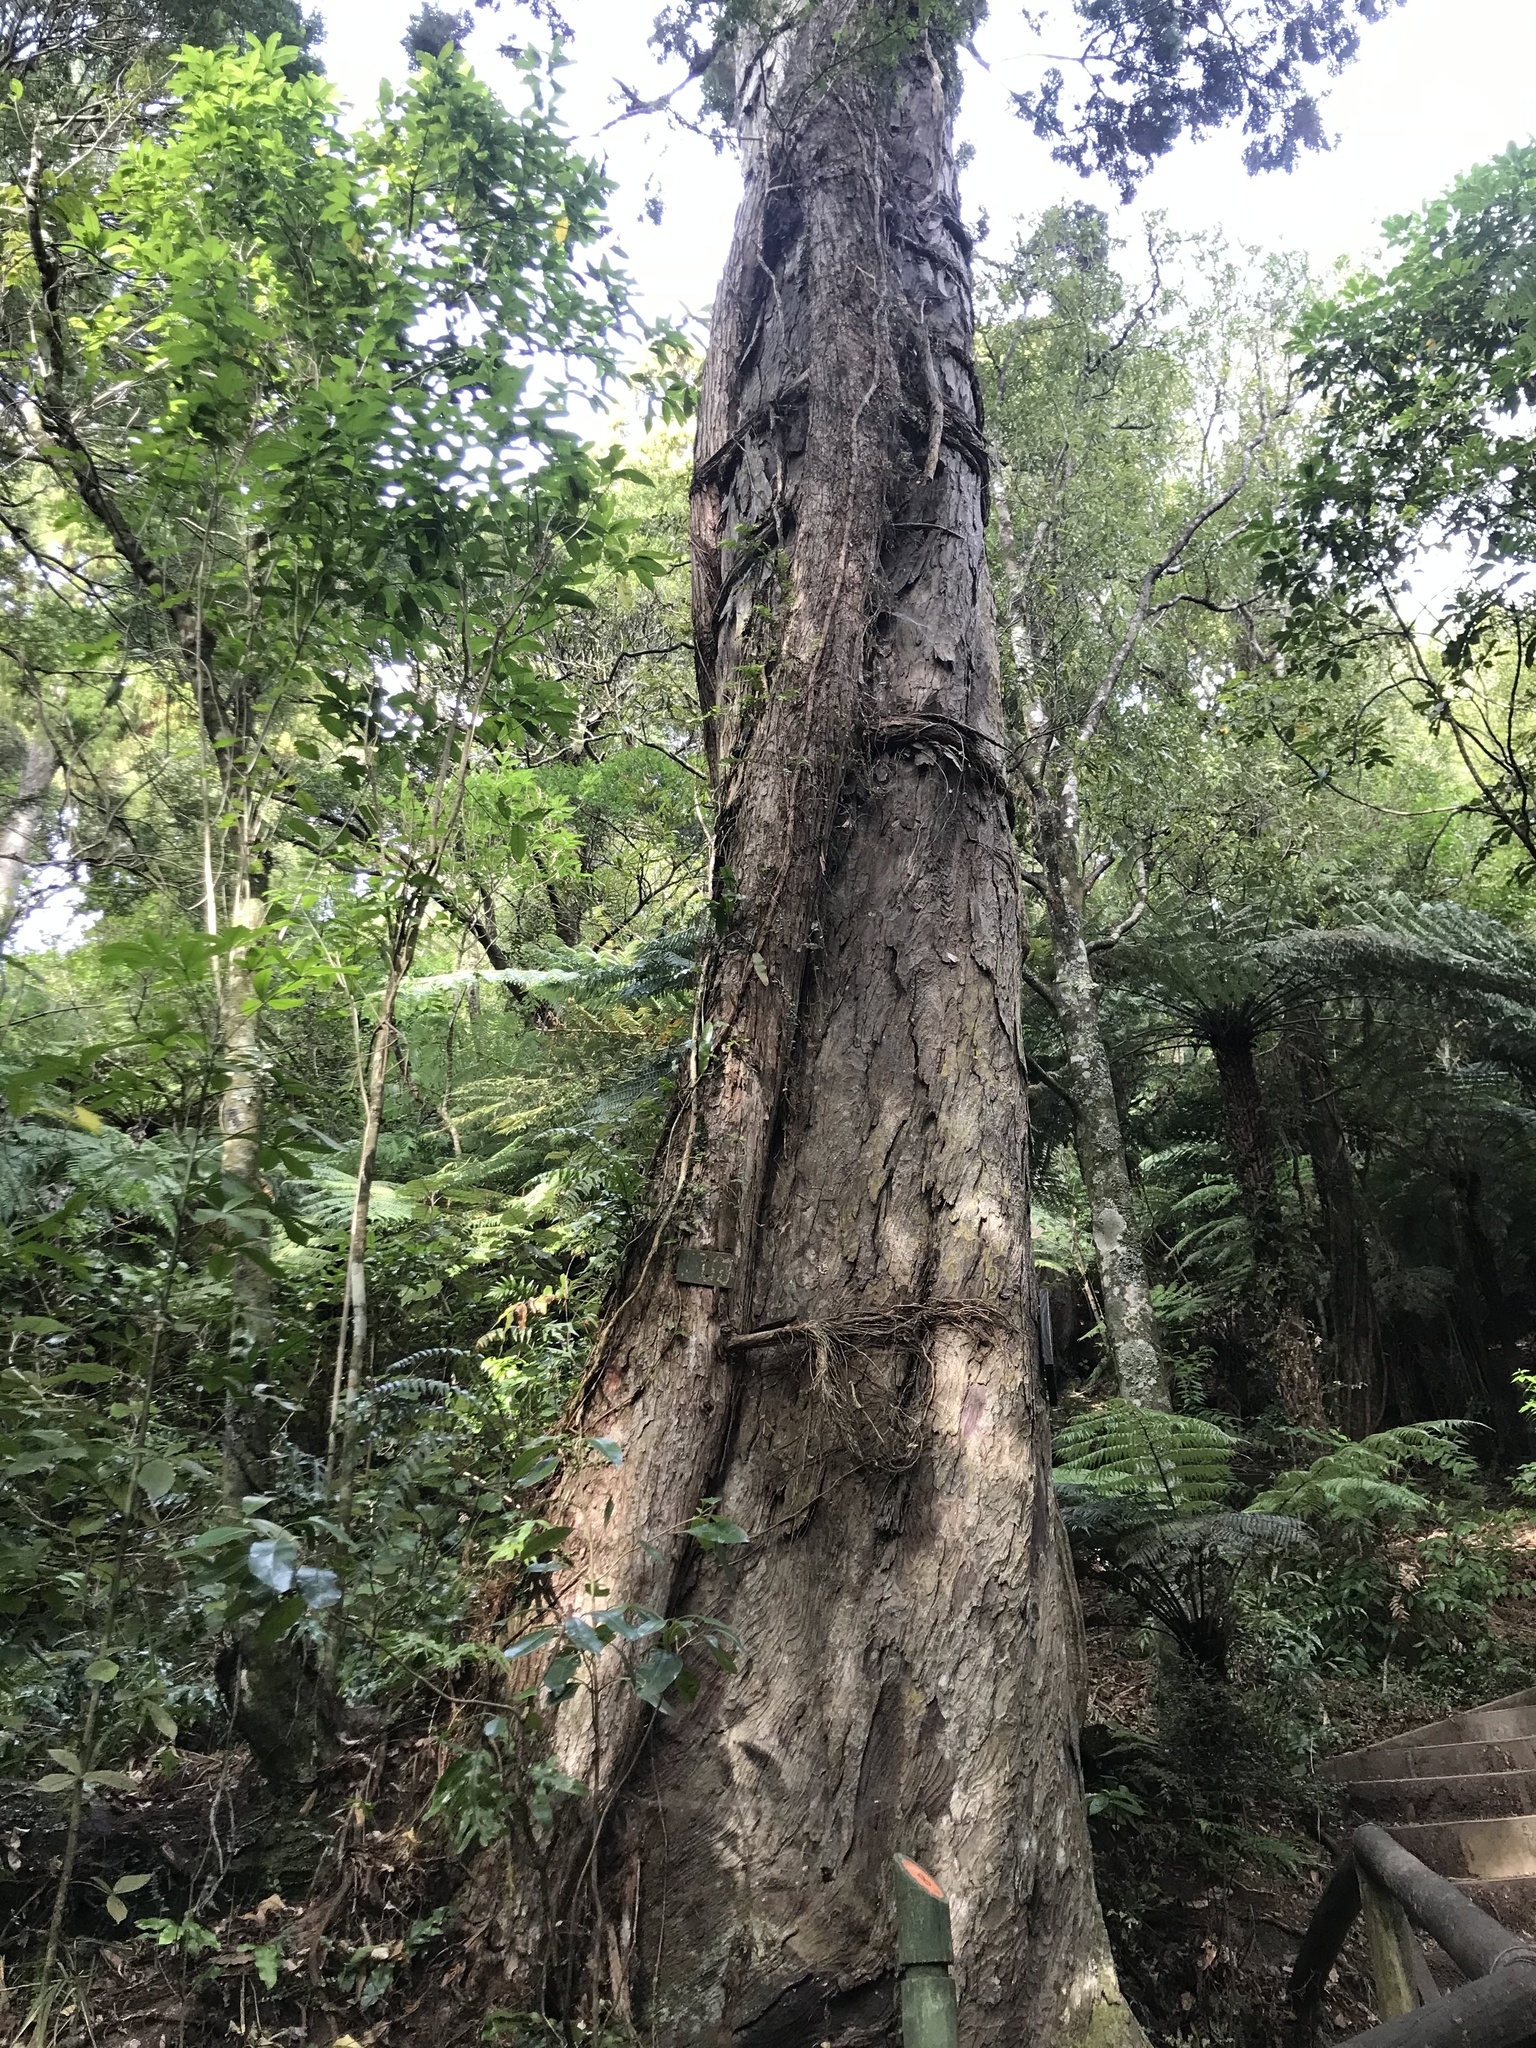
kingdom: Plantae
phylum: Tracheophyta
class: Magnoliopsida
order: Myrtales
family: Myrtaceae
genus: Metrosideros
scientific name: Metrosideros robusta
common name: Northern rata
